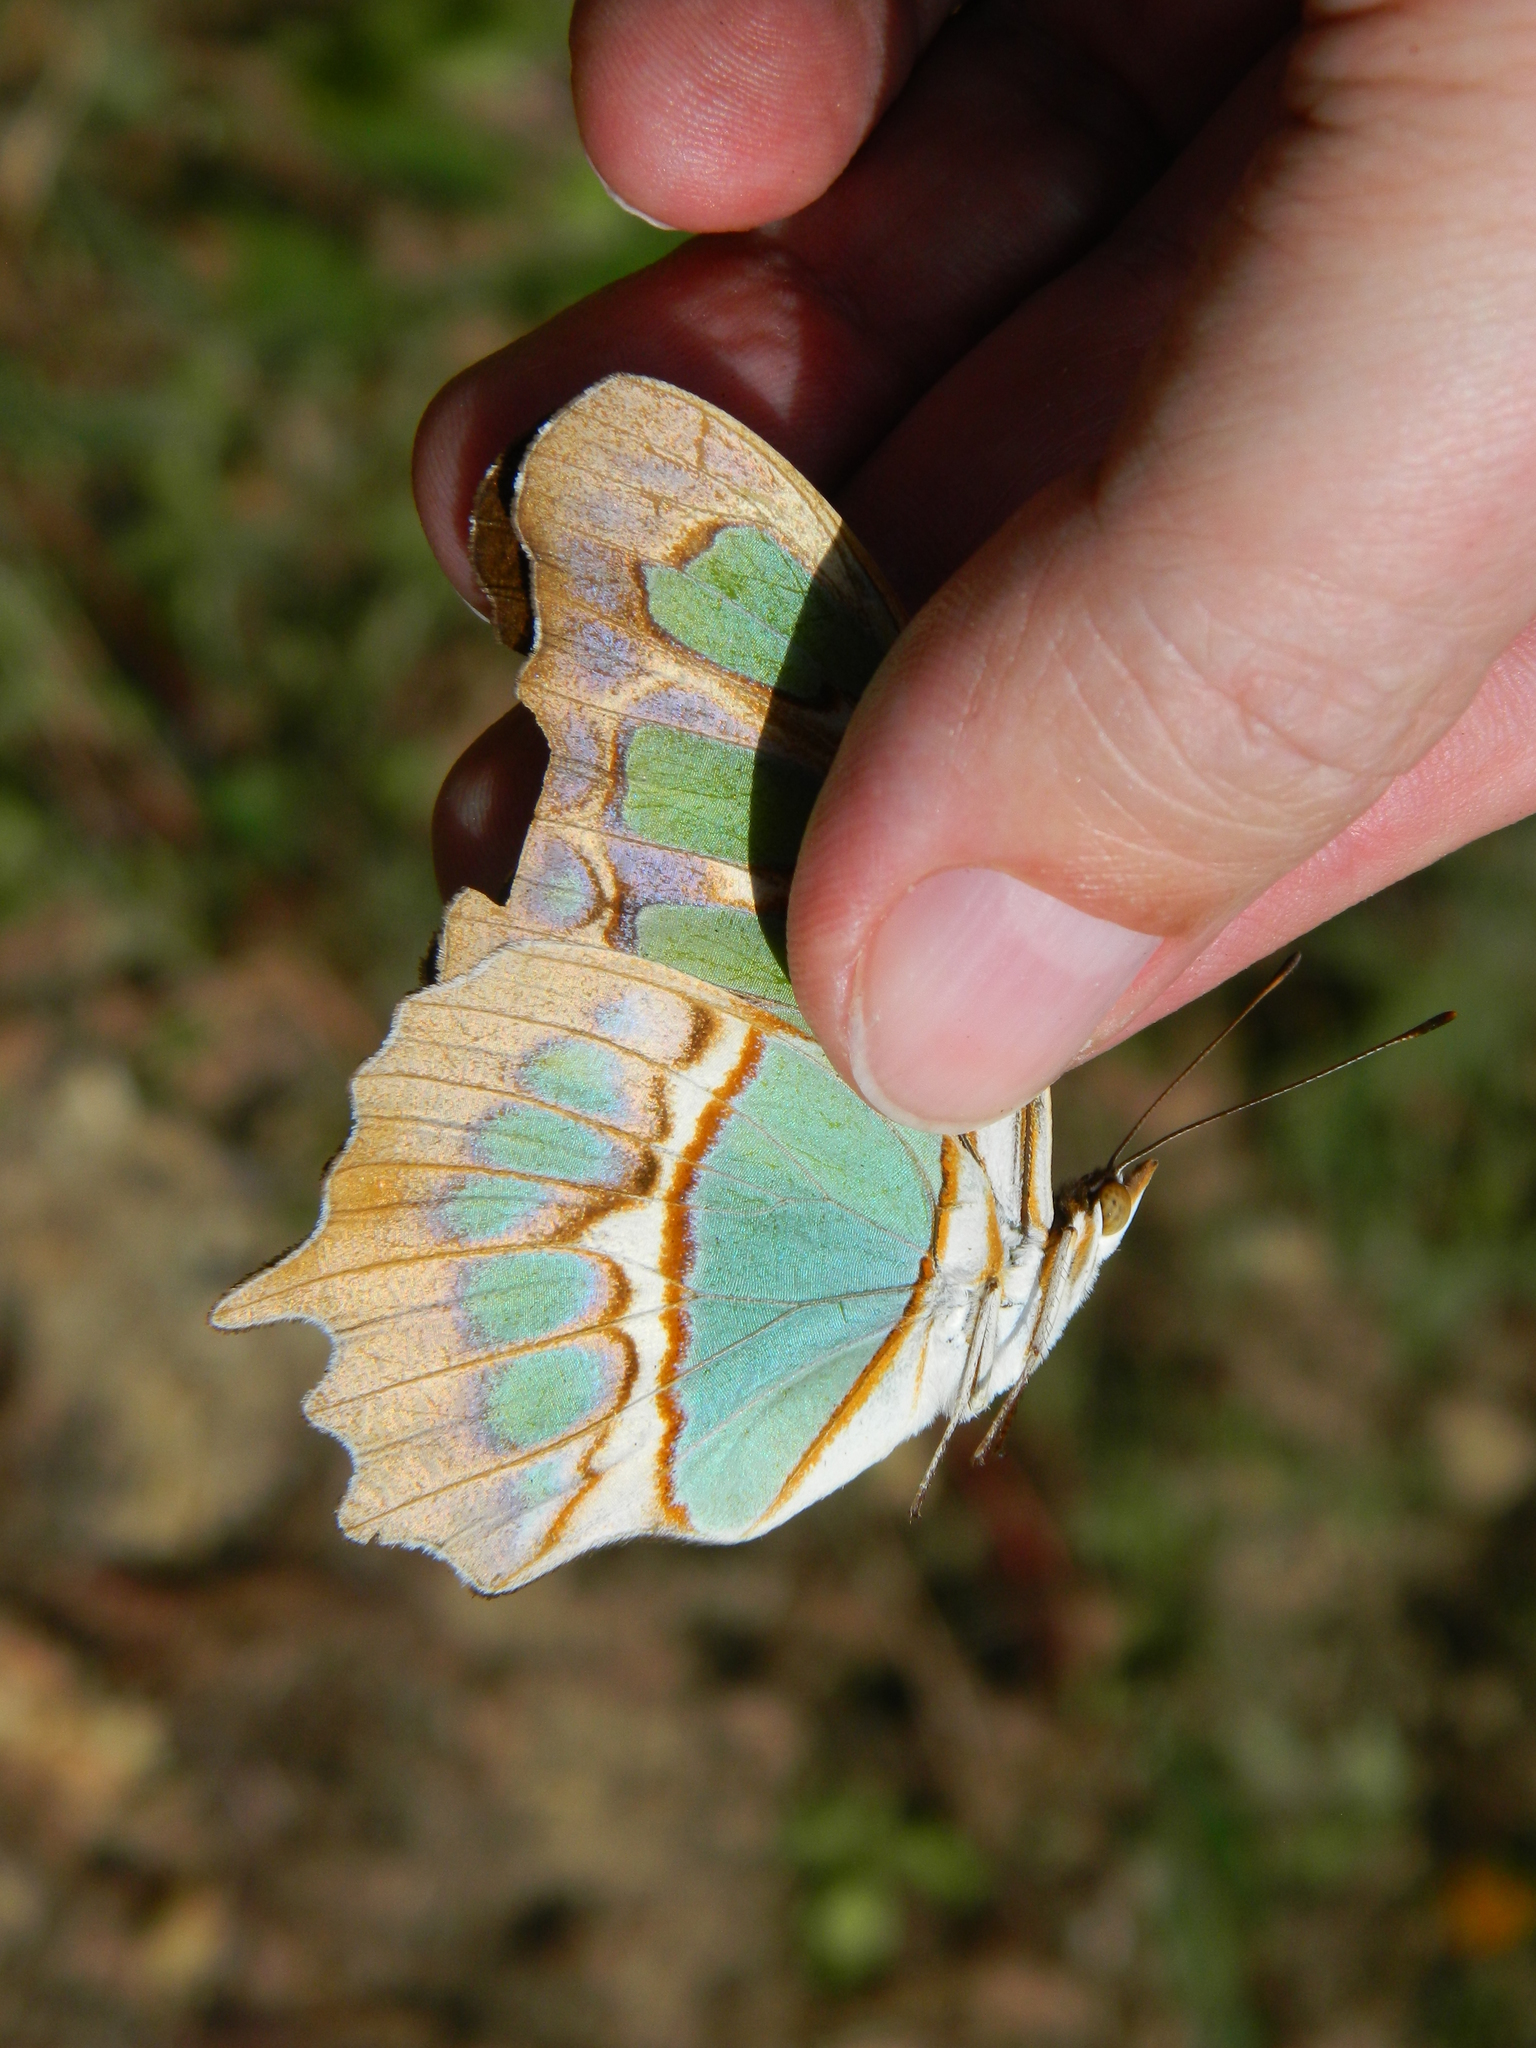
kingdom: Animalia
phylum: Arthropoda
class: Insecta
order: Lepidoptera
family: Nymphalidae
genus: Siproeta
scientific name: Siproeta stelenes
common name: Malachite
